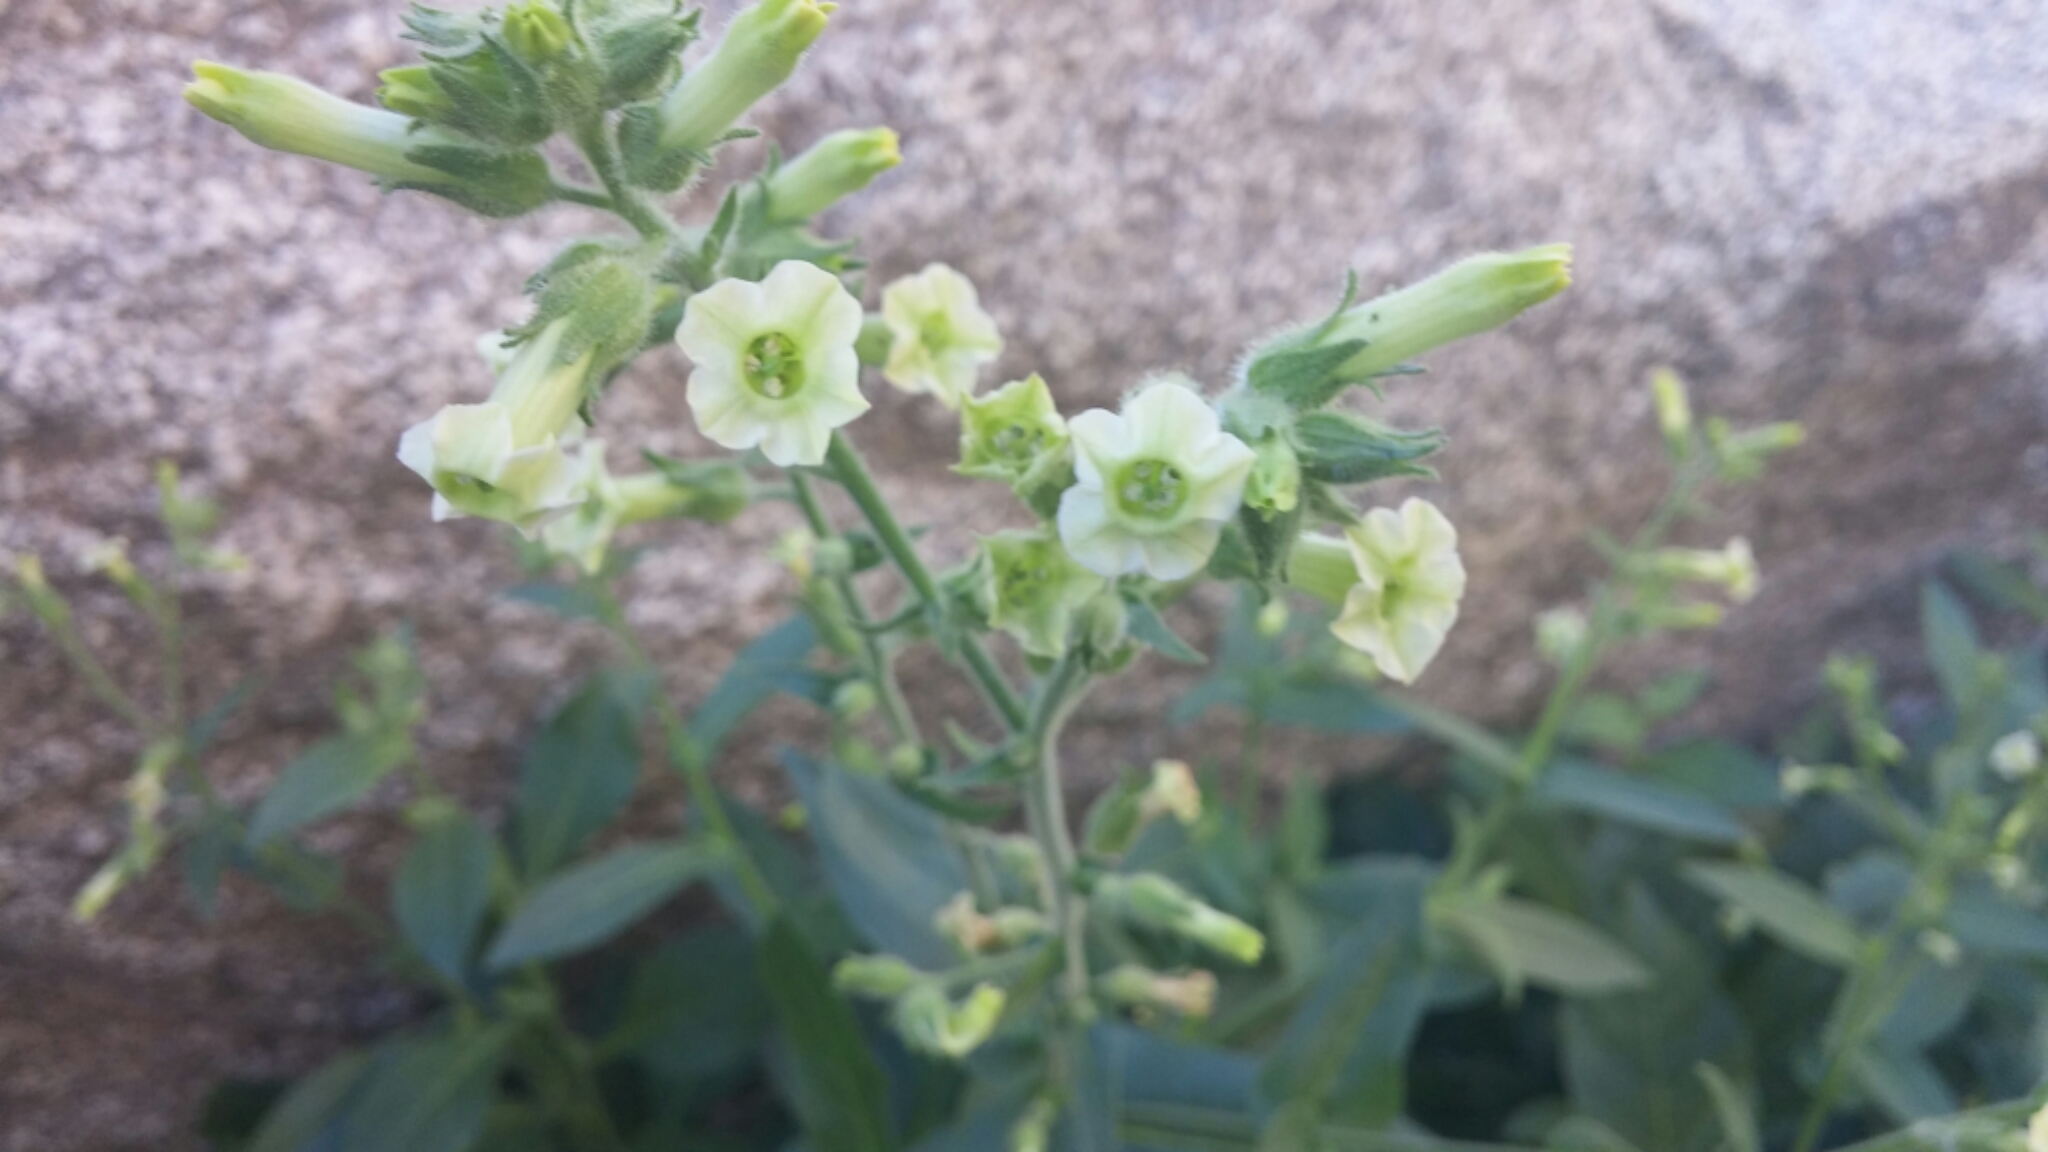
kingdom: Plantae
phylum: Tracheophyta
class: Magnoliopsida
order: Solanales
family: Solanaceae
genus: Nicotiana
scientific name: Nicotiana obtusifolia
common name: Desert tobacco
